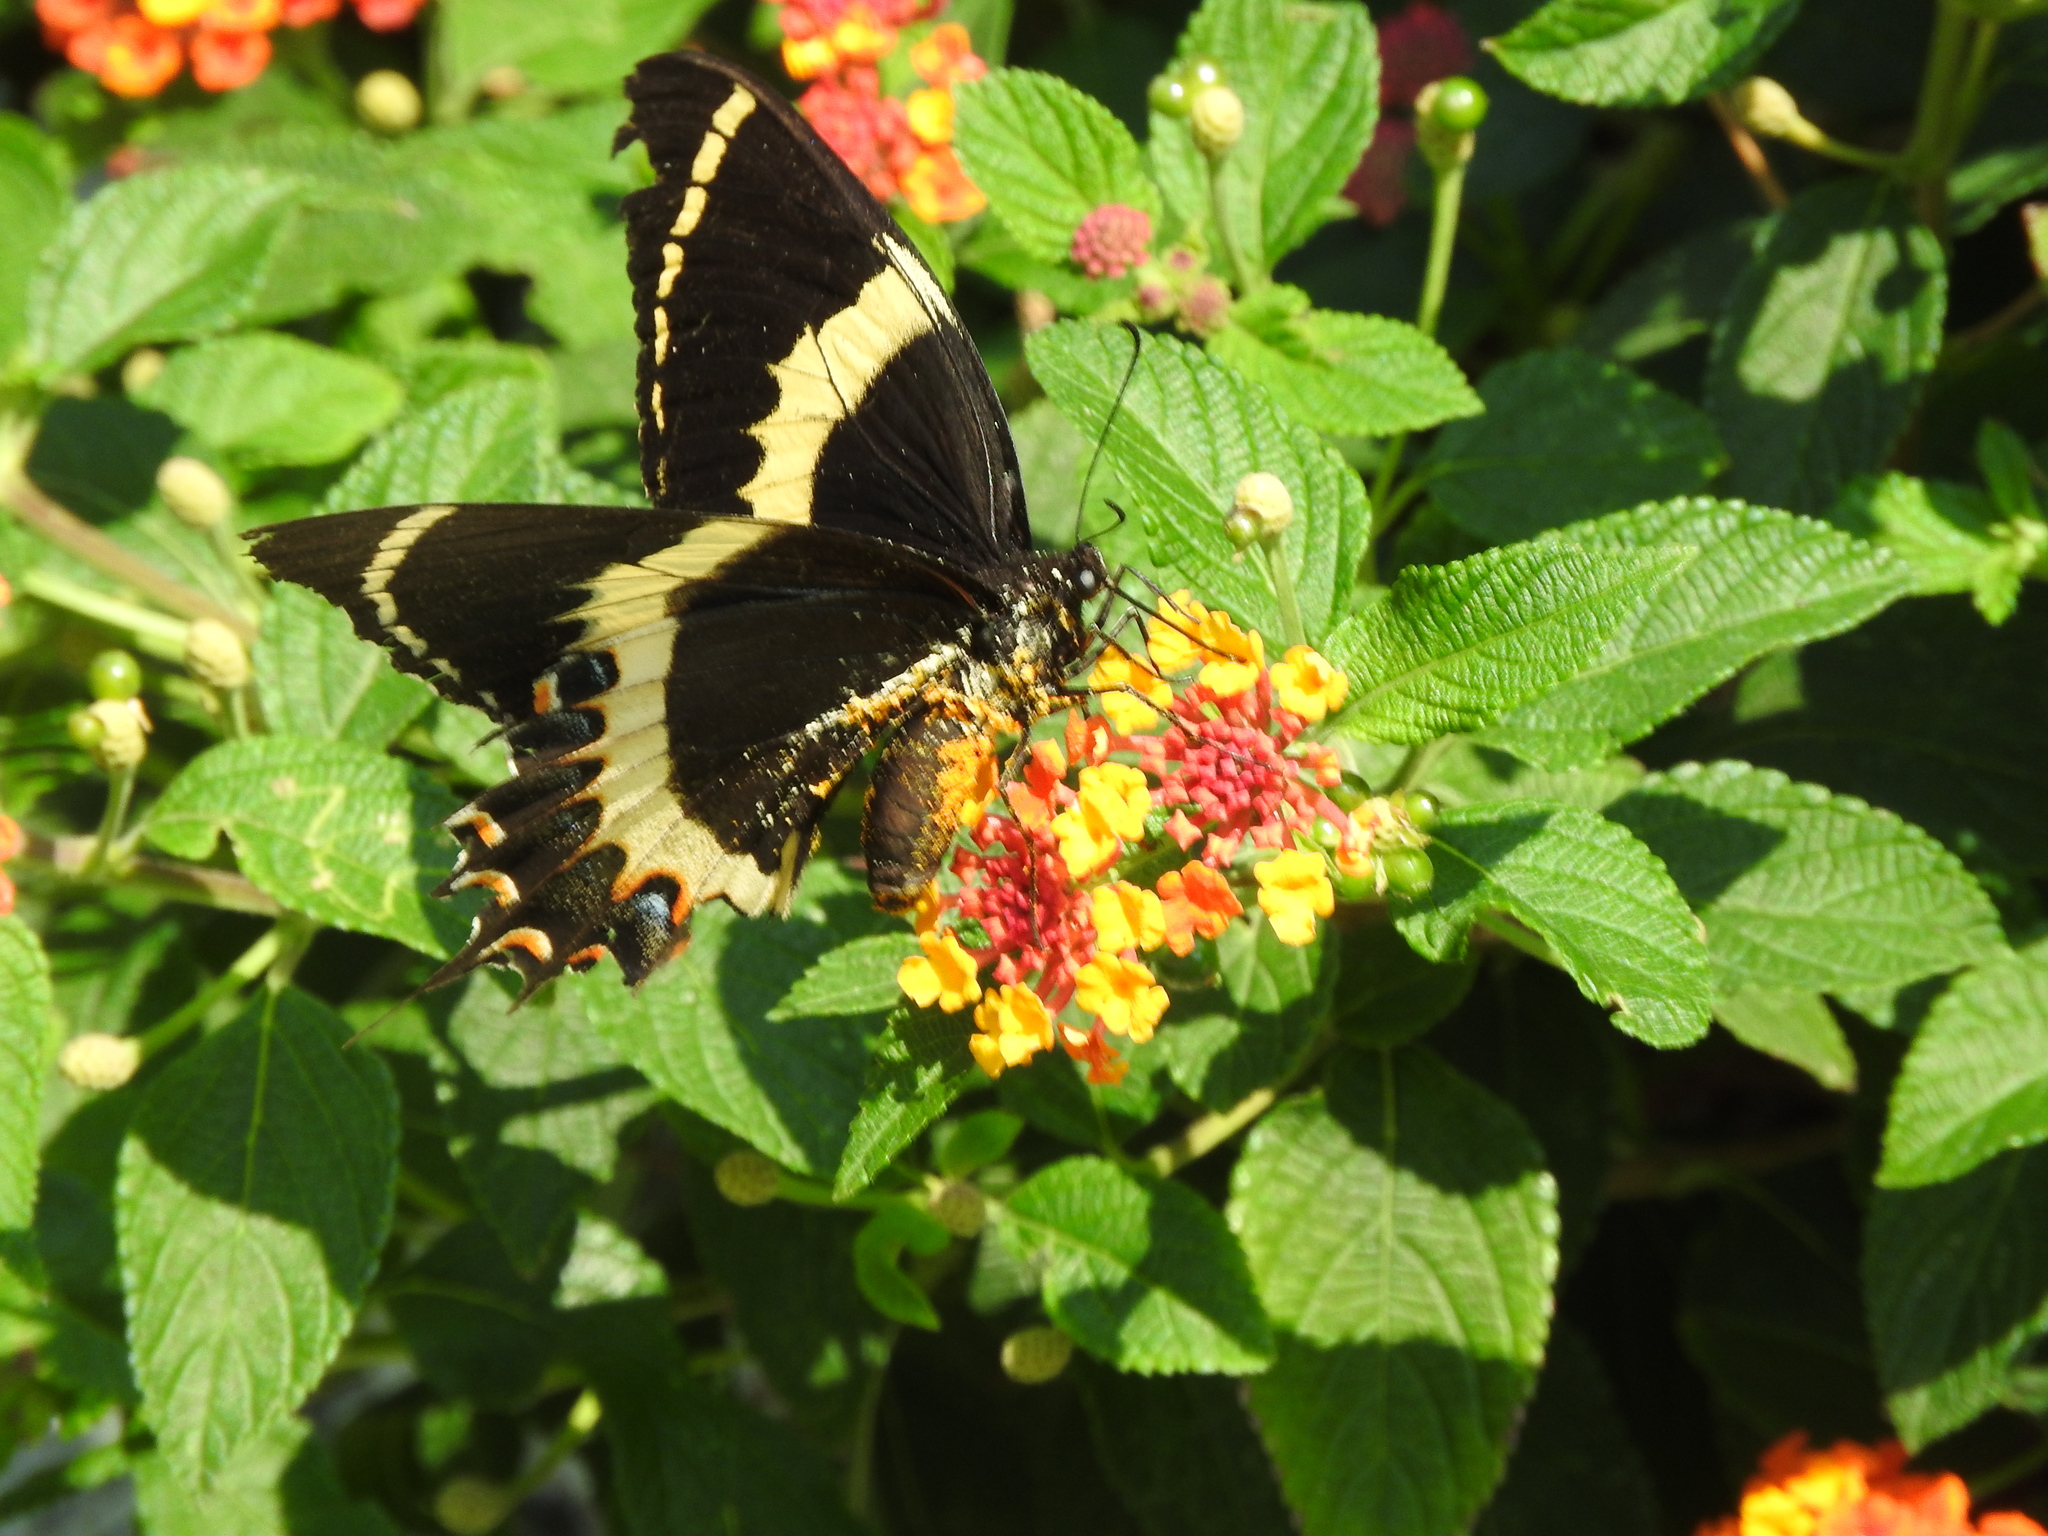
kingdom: Animalia
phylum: Arthropoda
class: Insecta
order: Lepidoptera
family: Papilionidae
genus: Papilio
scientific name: Papilio garamas
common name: Magnificent swallowtail
